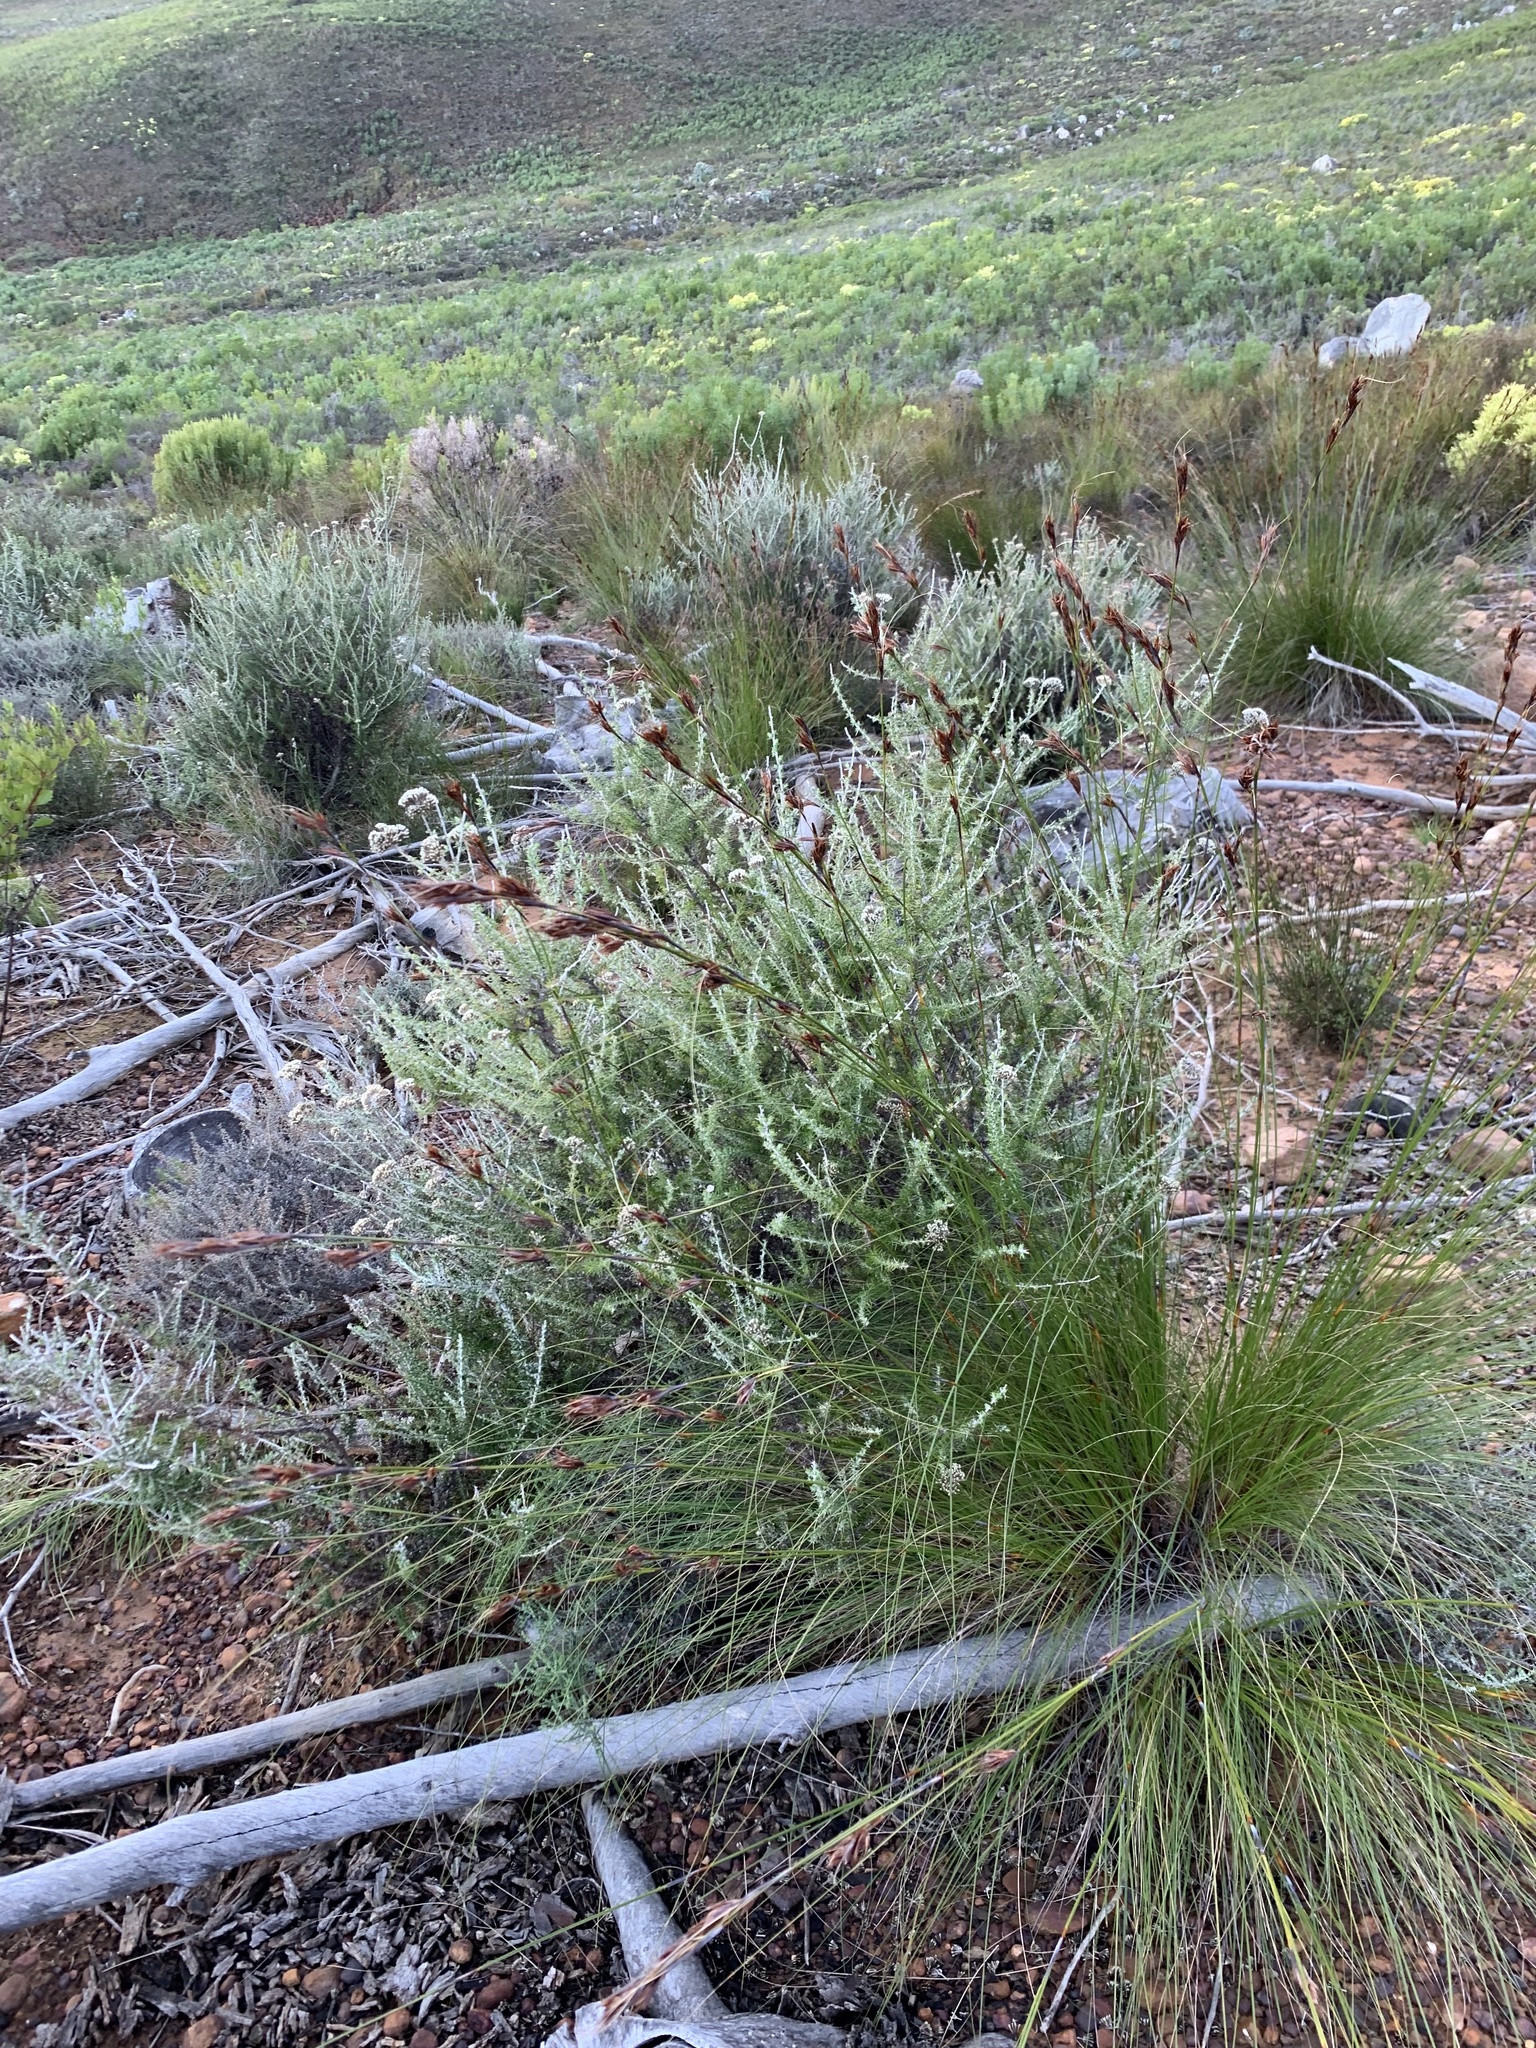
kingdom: Plantae
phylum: Tracheophyta
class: Liliopsida
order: Poales
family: Cyperaceae
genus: Tetraria
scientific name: Tetraria ustulata
